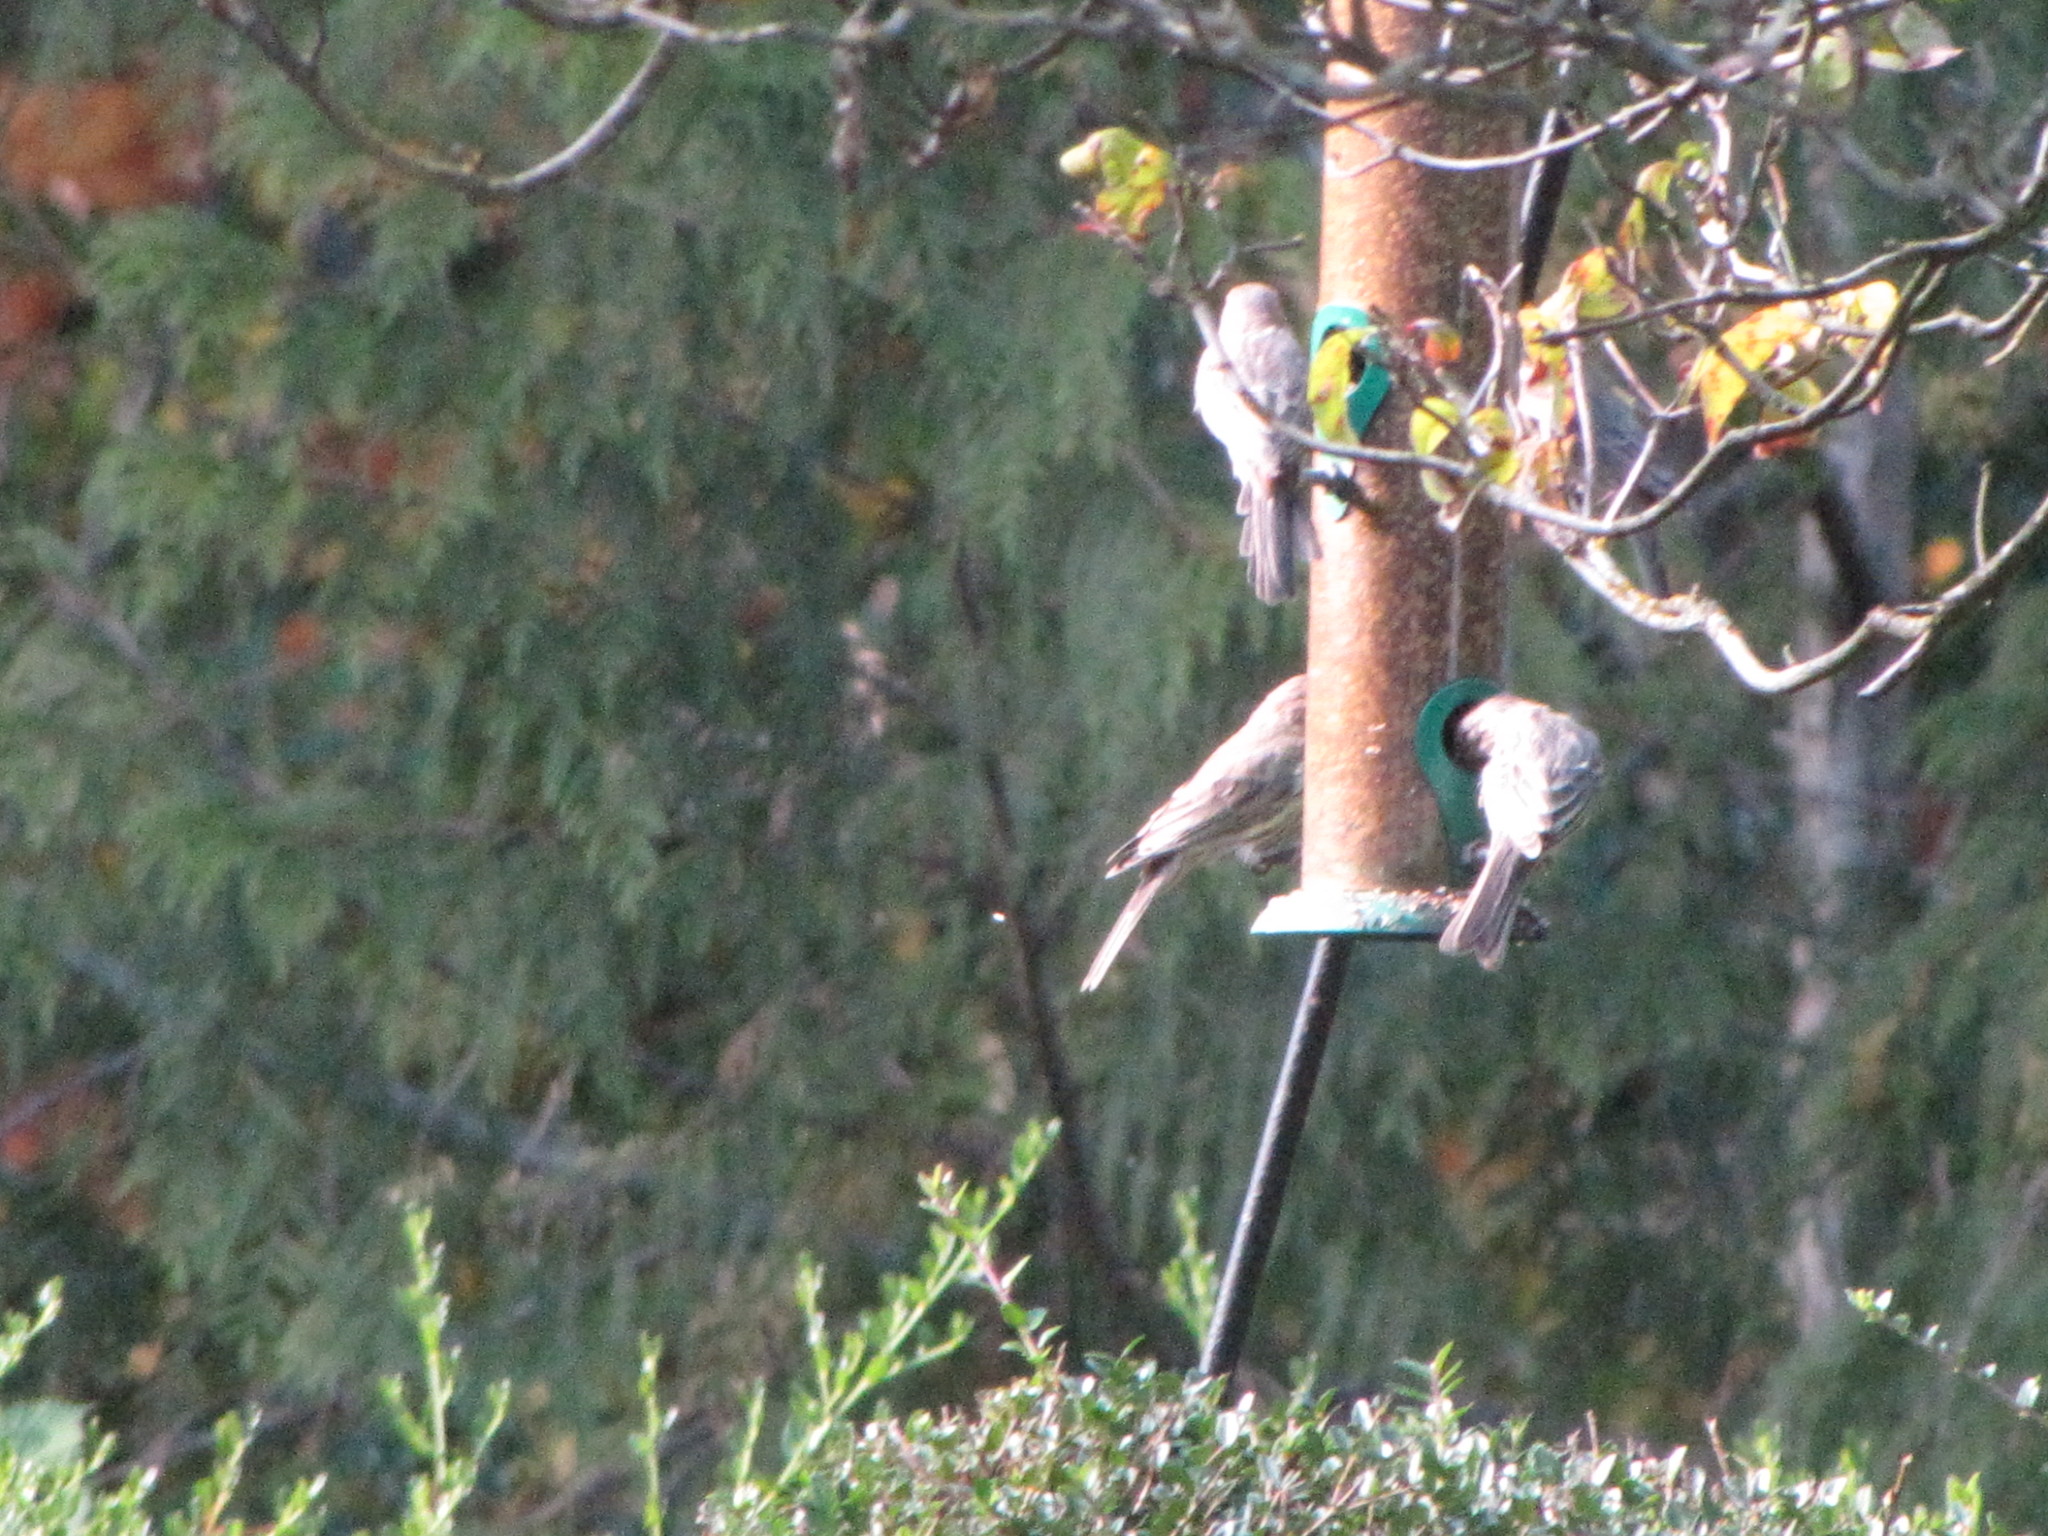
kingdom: Animalia
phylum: Chordata
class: Aves
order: Passeriformes
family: Fringillidae
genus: Haemorhous
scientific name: Haemorhous mexicanus
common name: House finch
